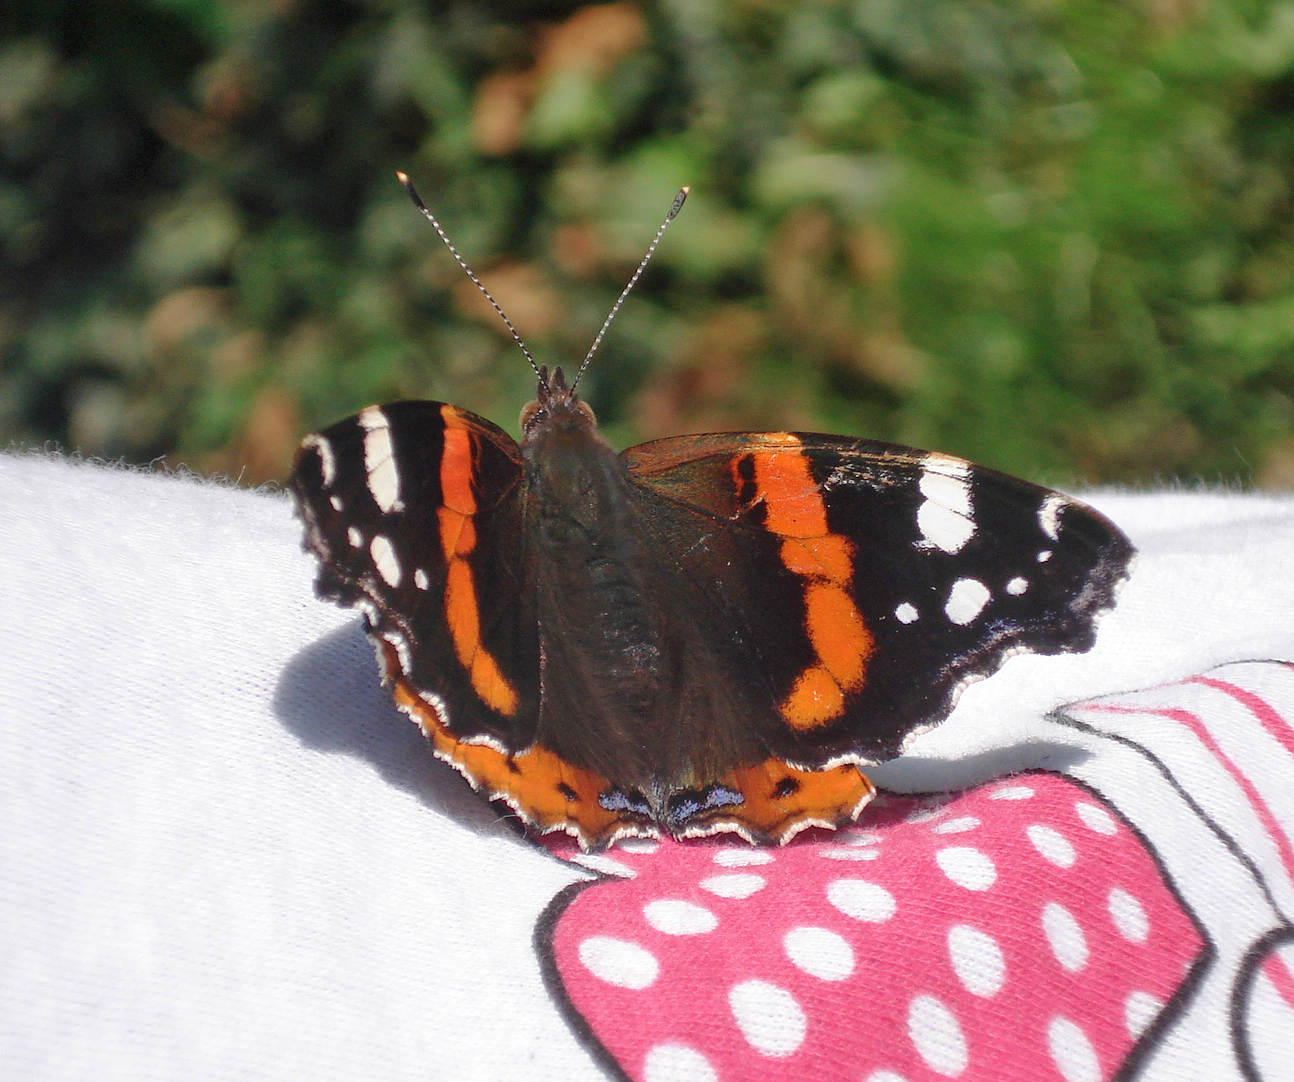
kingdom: Animalia
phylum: Arthropoda
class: Insecta
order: Lepidoptera
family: Nymphalidae
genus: Vanessa
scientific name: Vanessa atalanta
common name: Red admiral
